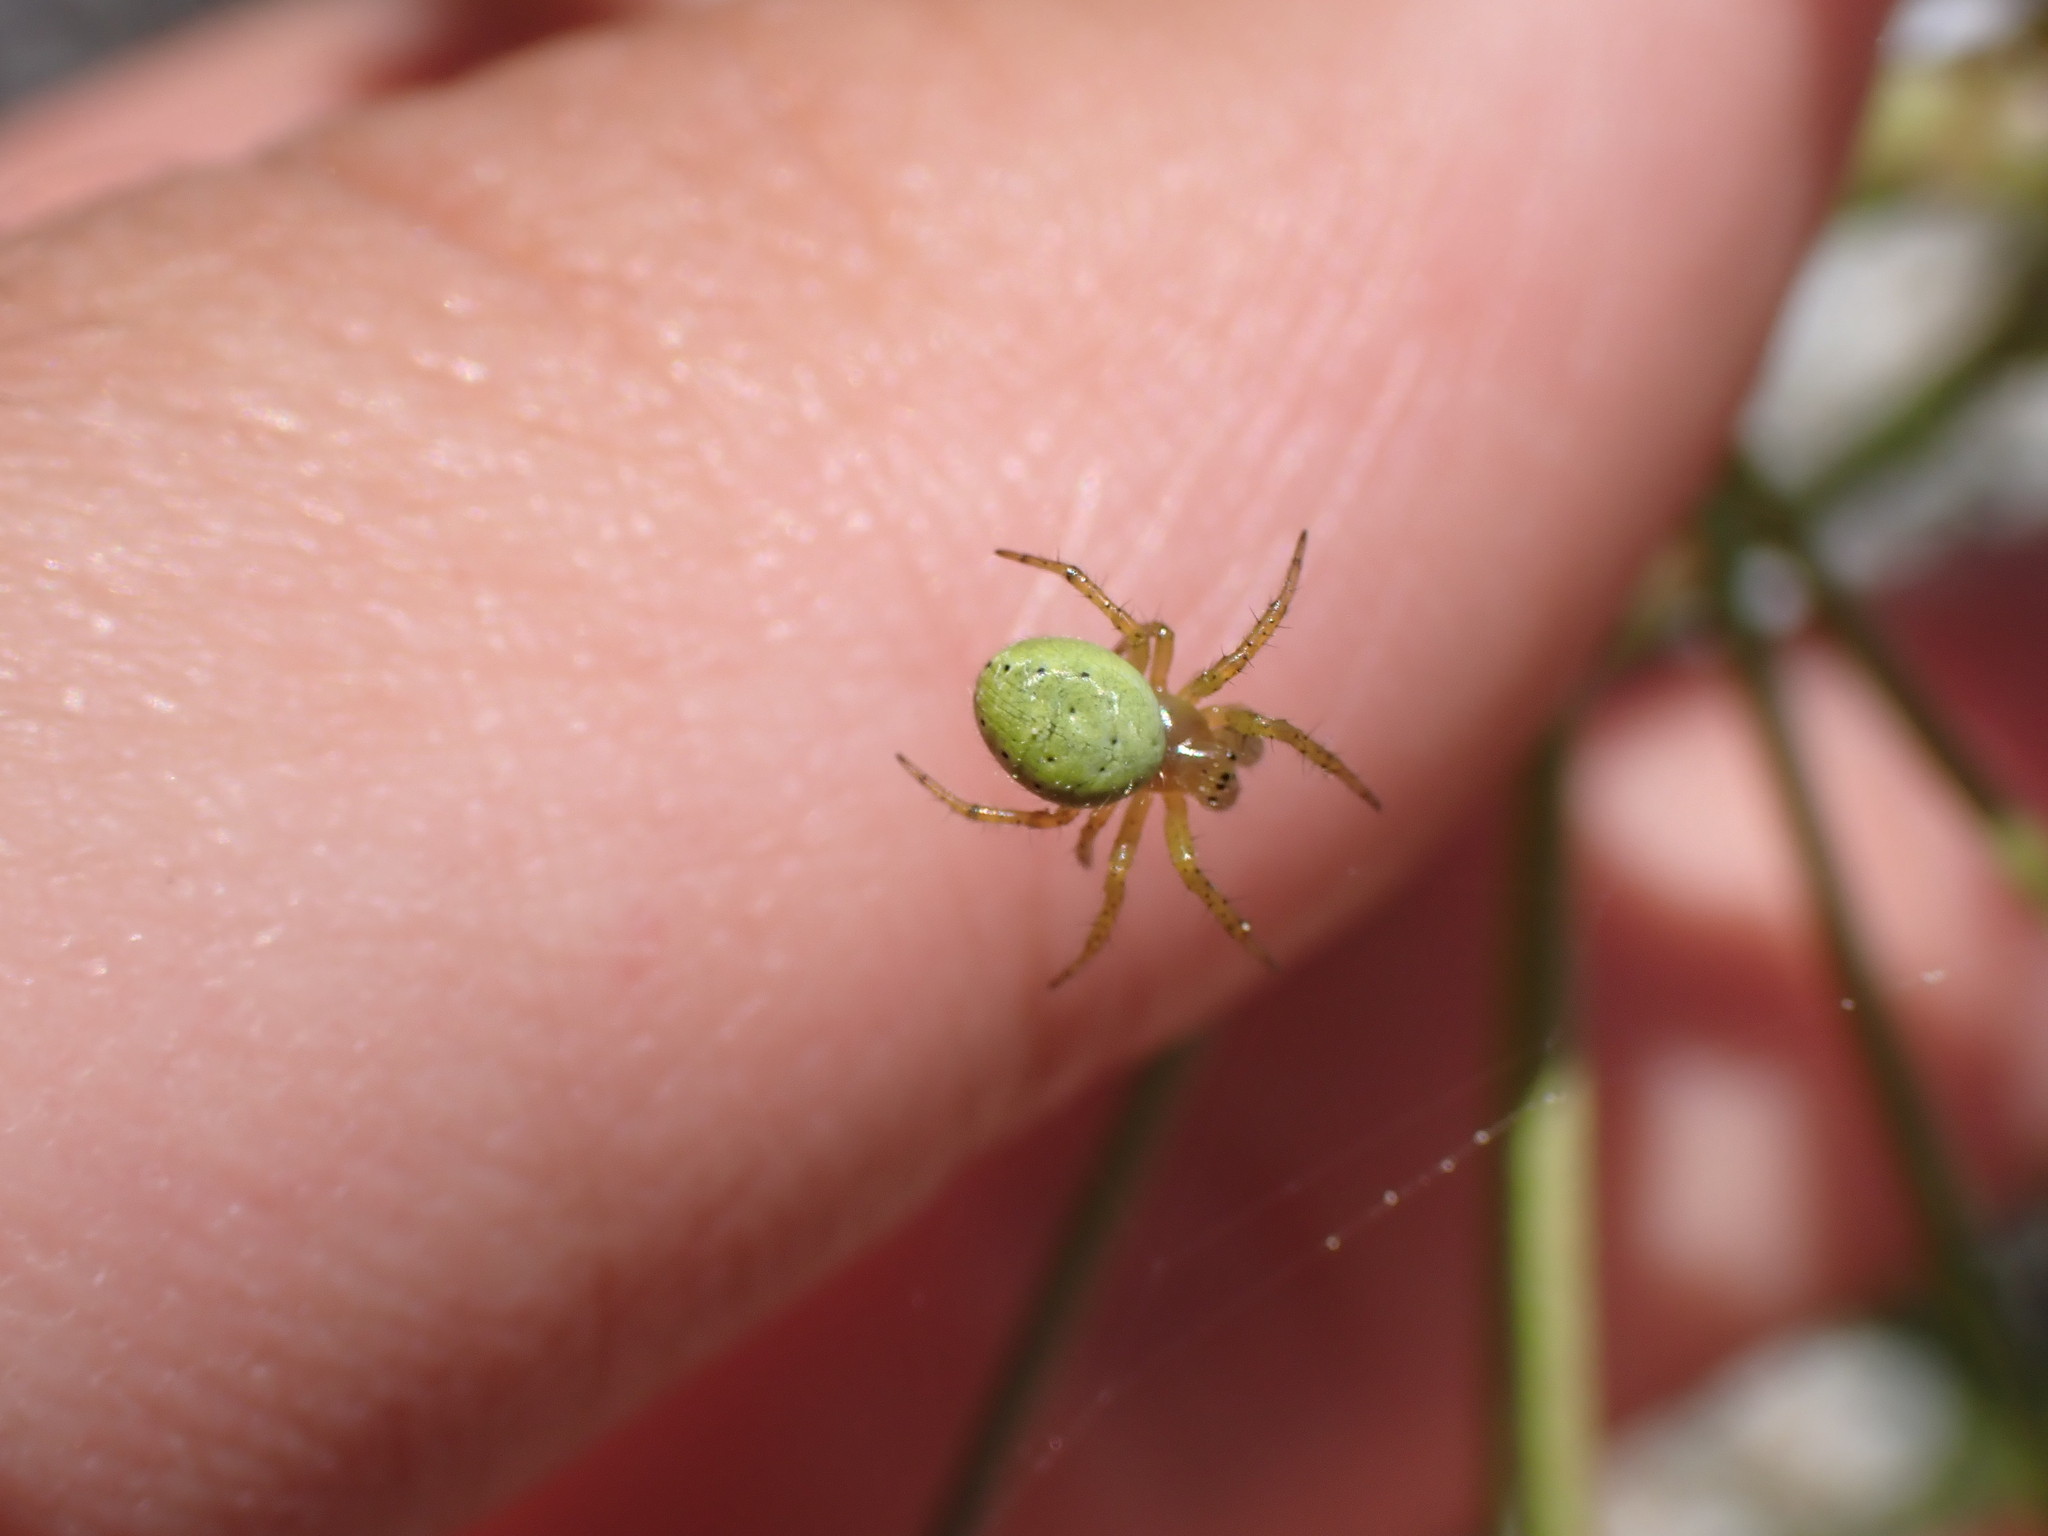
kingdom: Animalia
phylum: Arthropoda
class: Arachnida
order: Araneae
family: Araneidae
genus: Araniella
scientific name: Araniella
